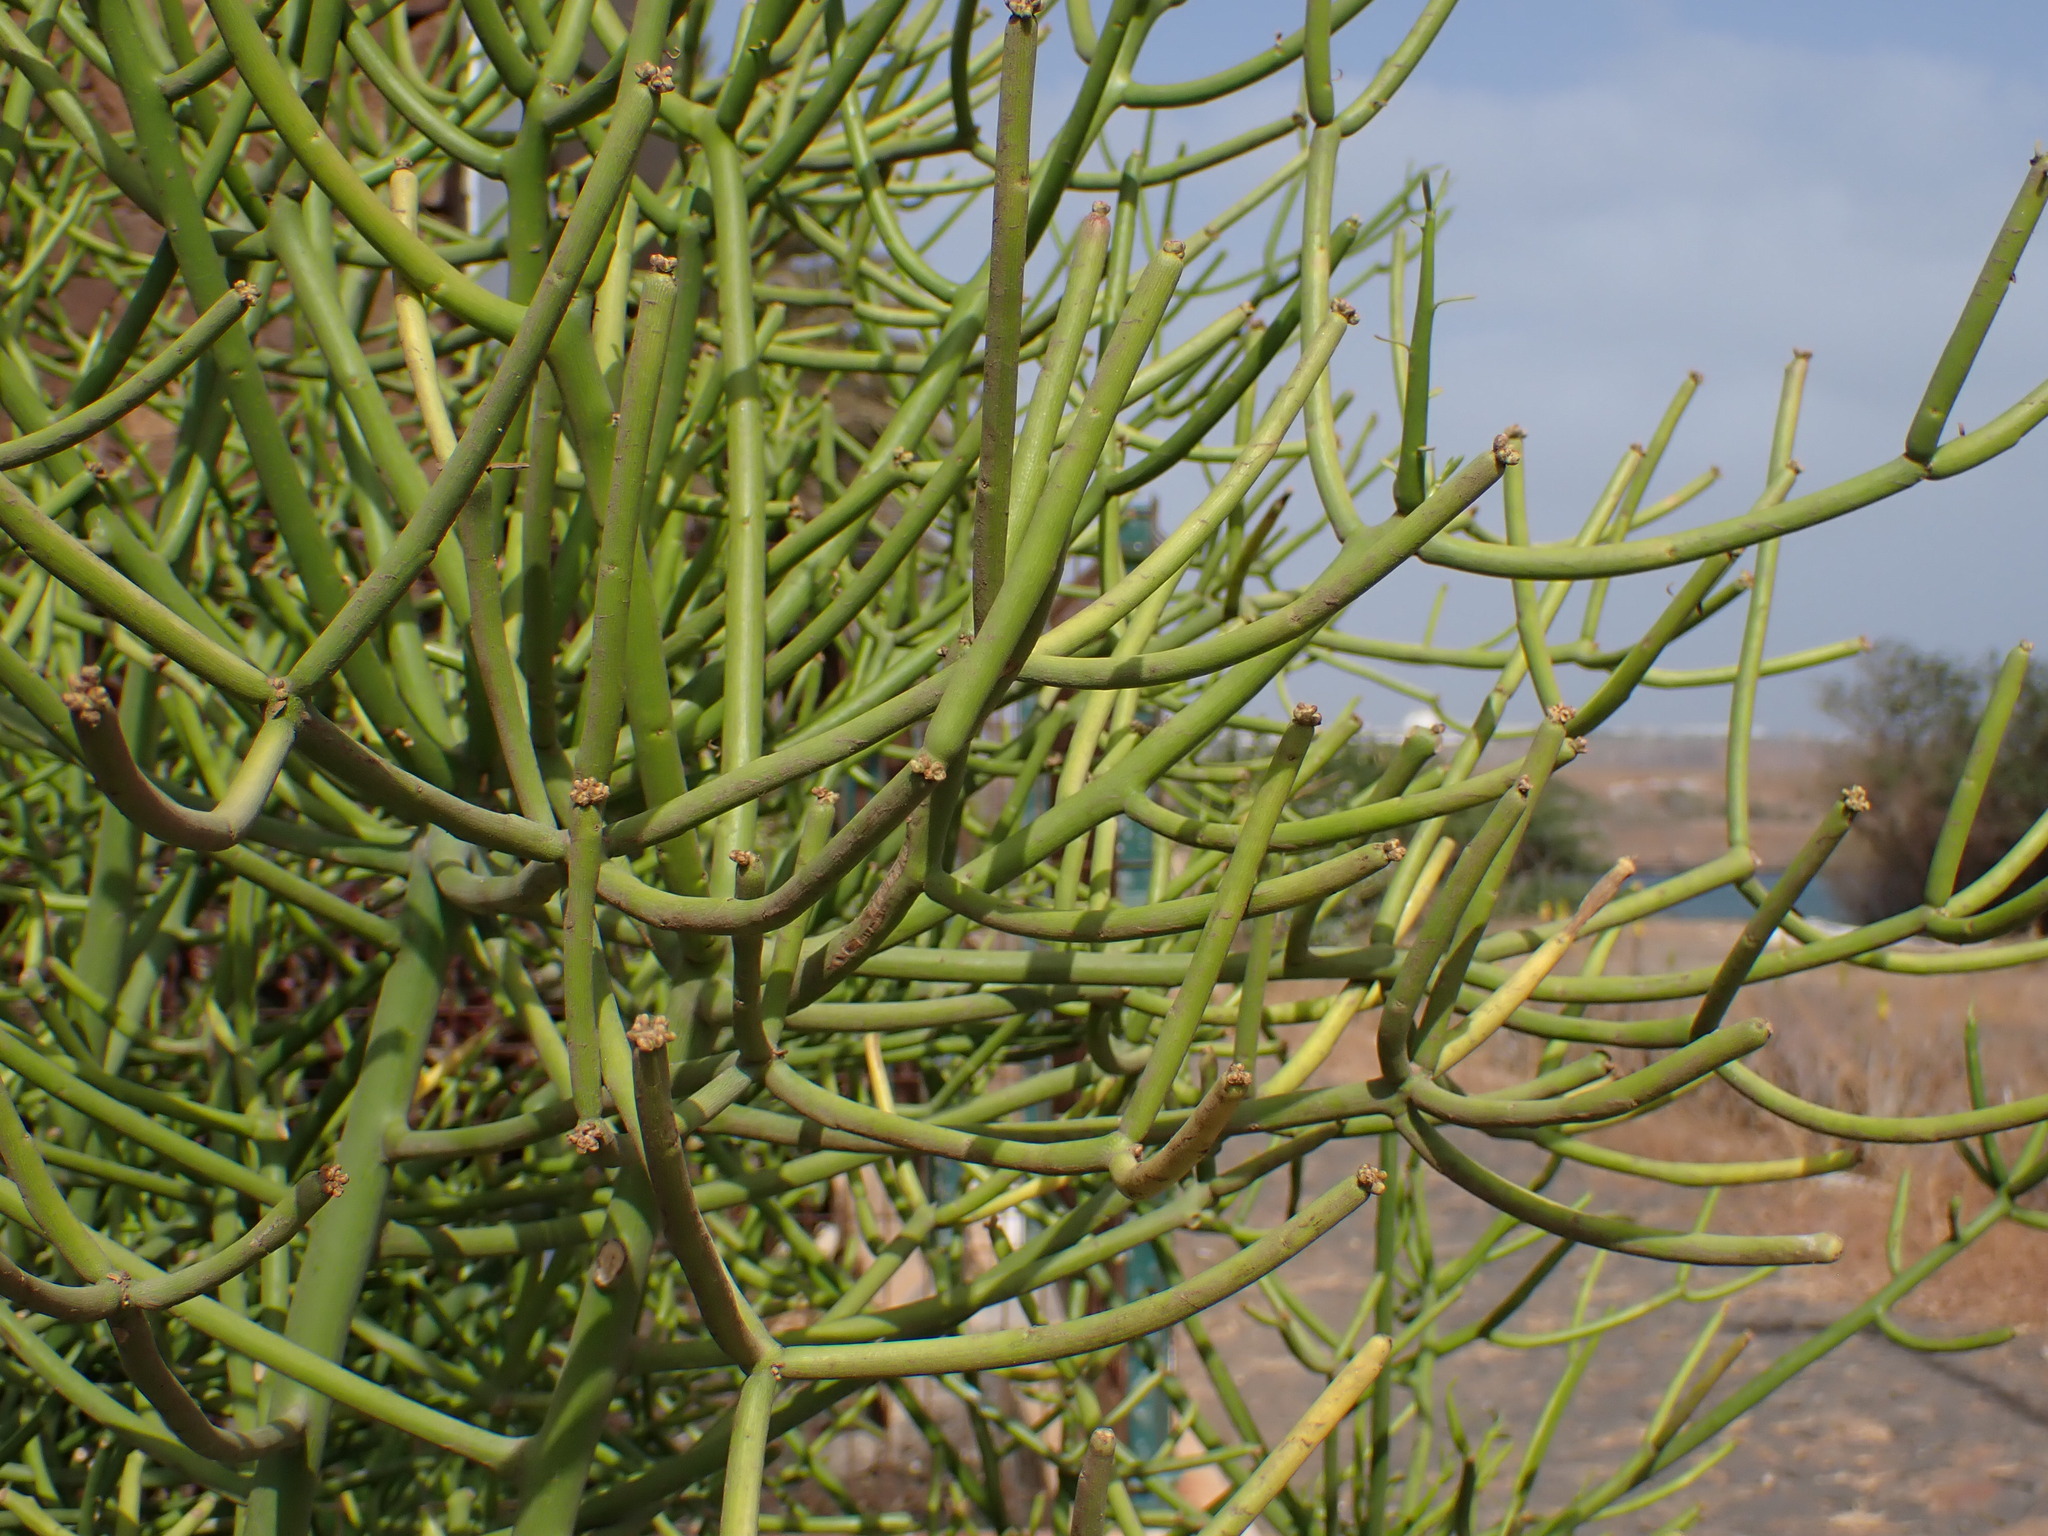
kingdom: Plantae
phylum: Tracheophyta
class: Magnoliopsida
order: Malpighiales
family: Euphorbiaceae
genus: Euphorbia
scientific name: Euphorbia tirucalli
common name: Indiantree spurge
